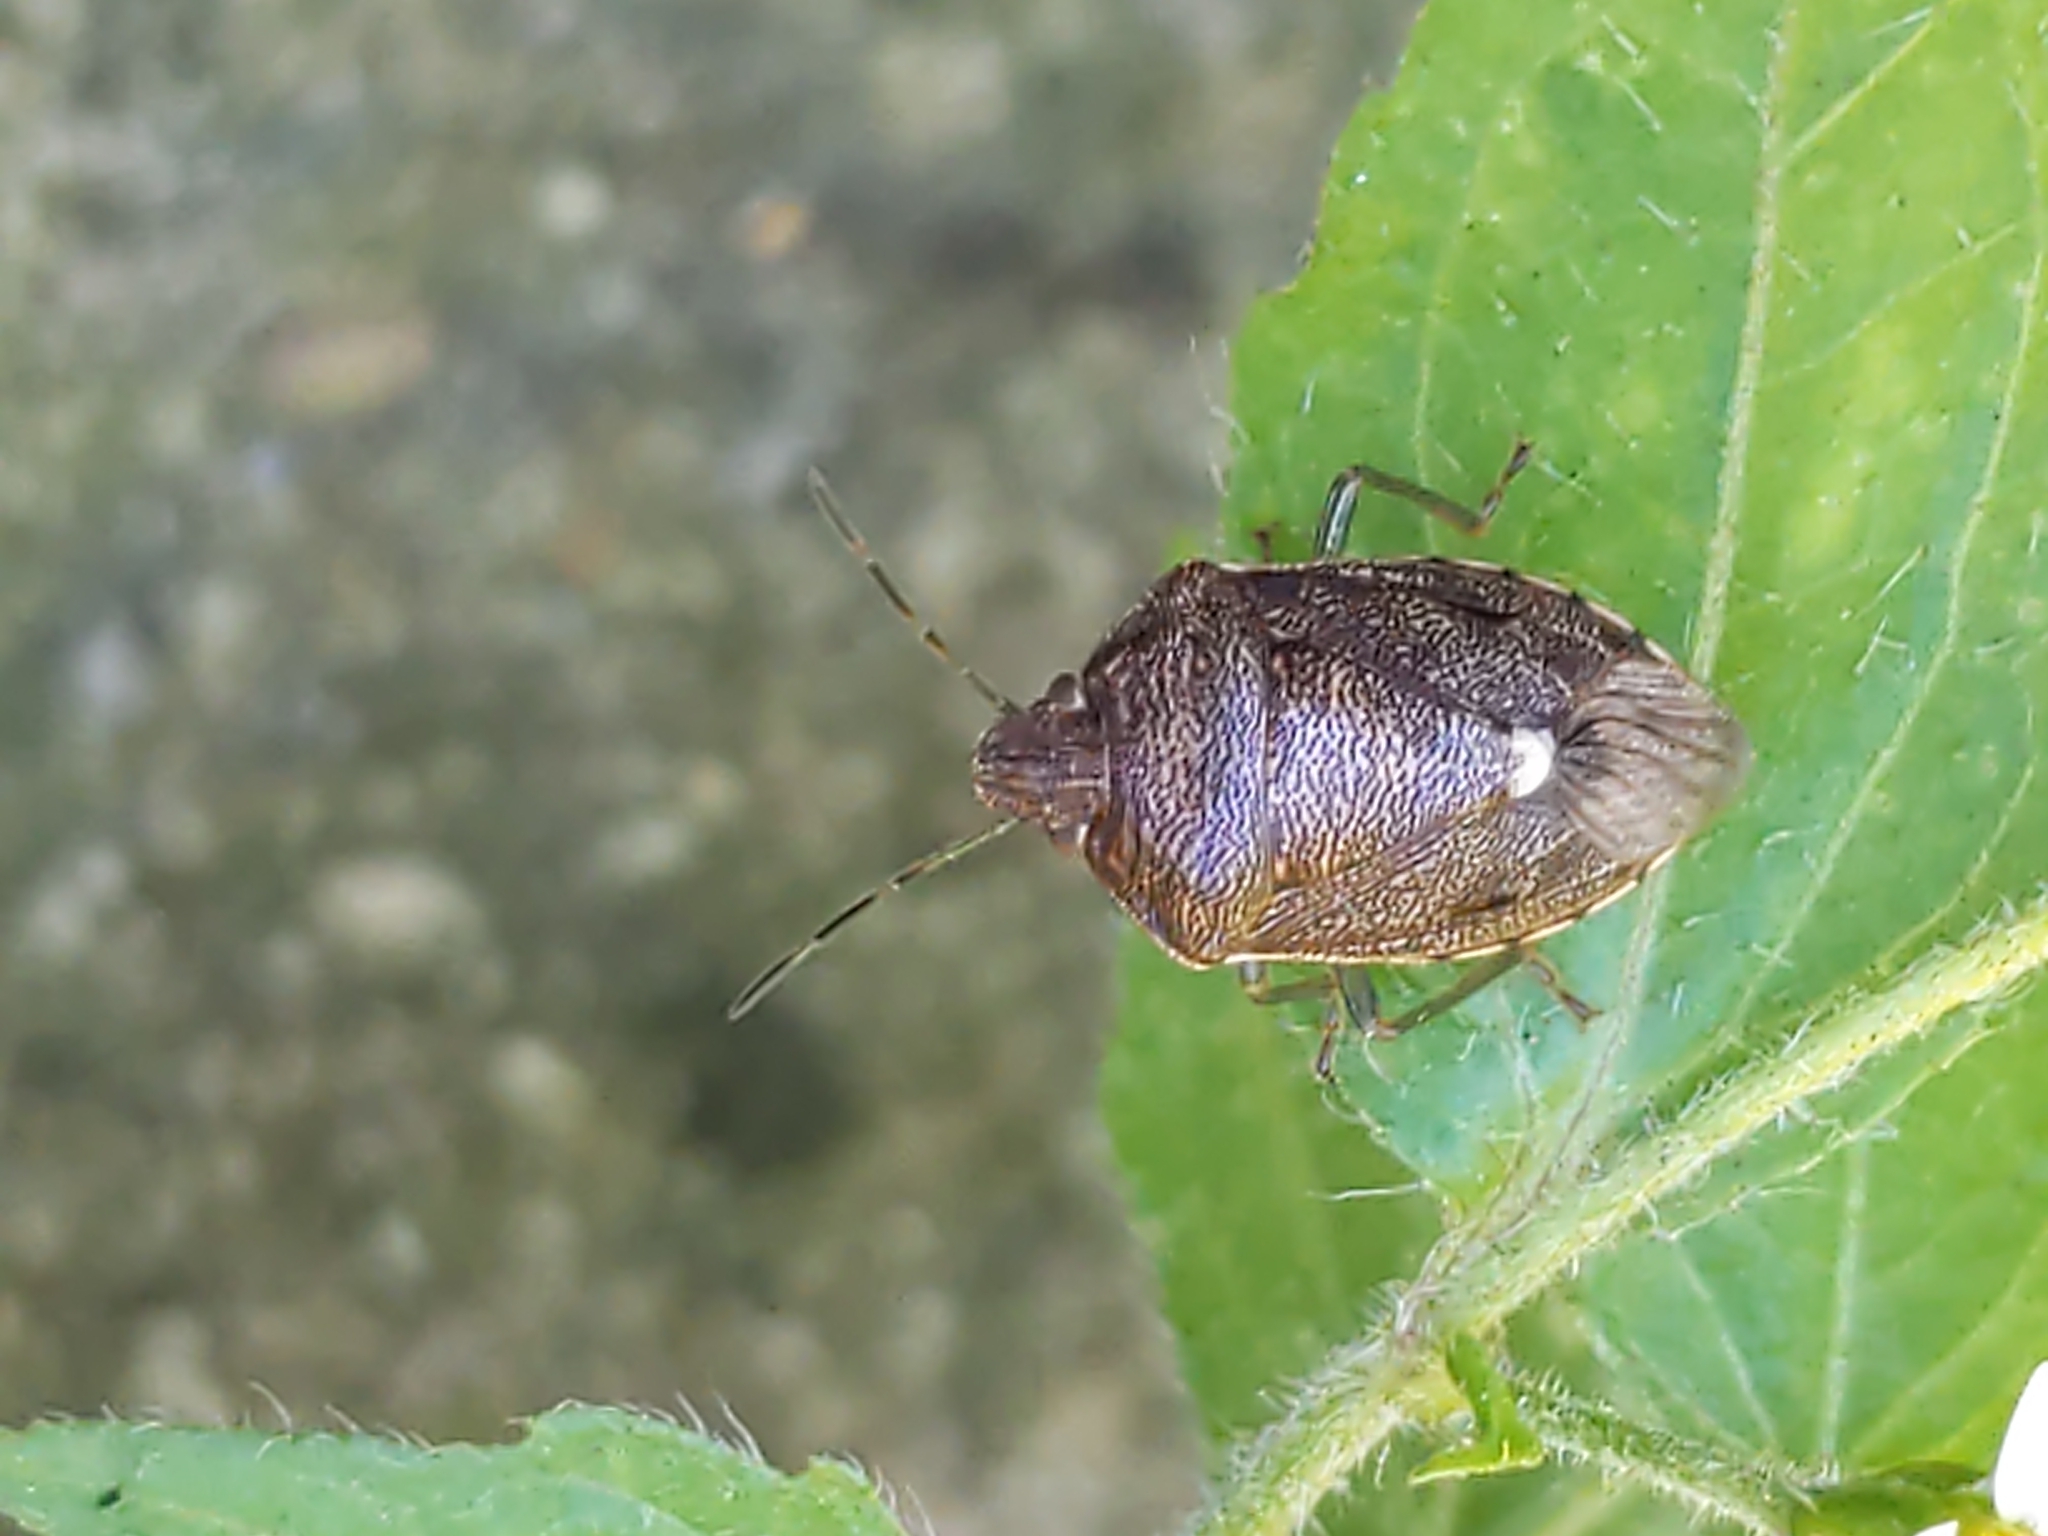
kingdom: Animalia
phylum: Arthropoda
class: Insecta
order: Hemiptera
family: Pentatomidae
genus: Banasa
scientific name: Banasa sordida
